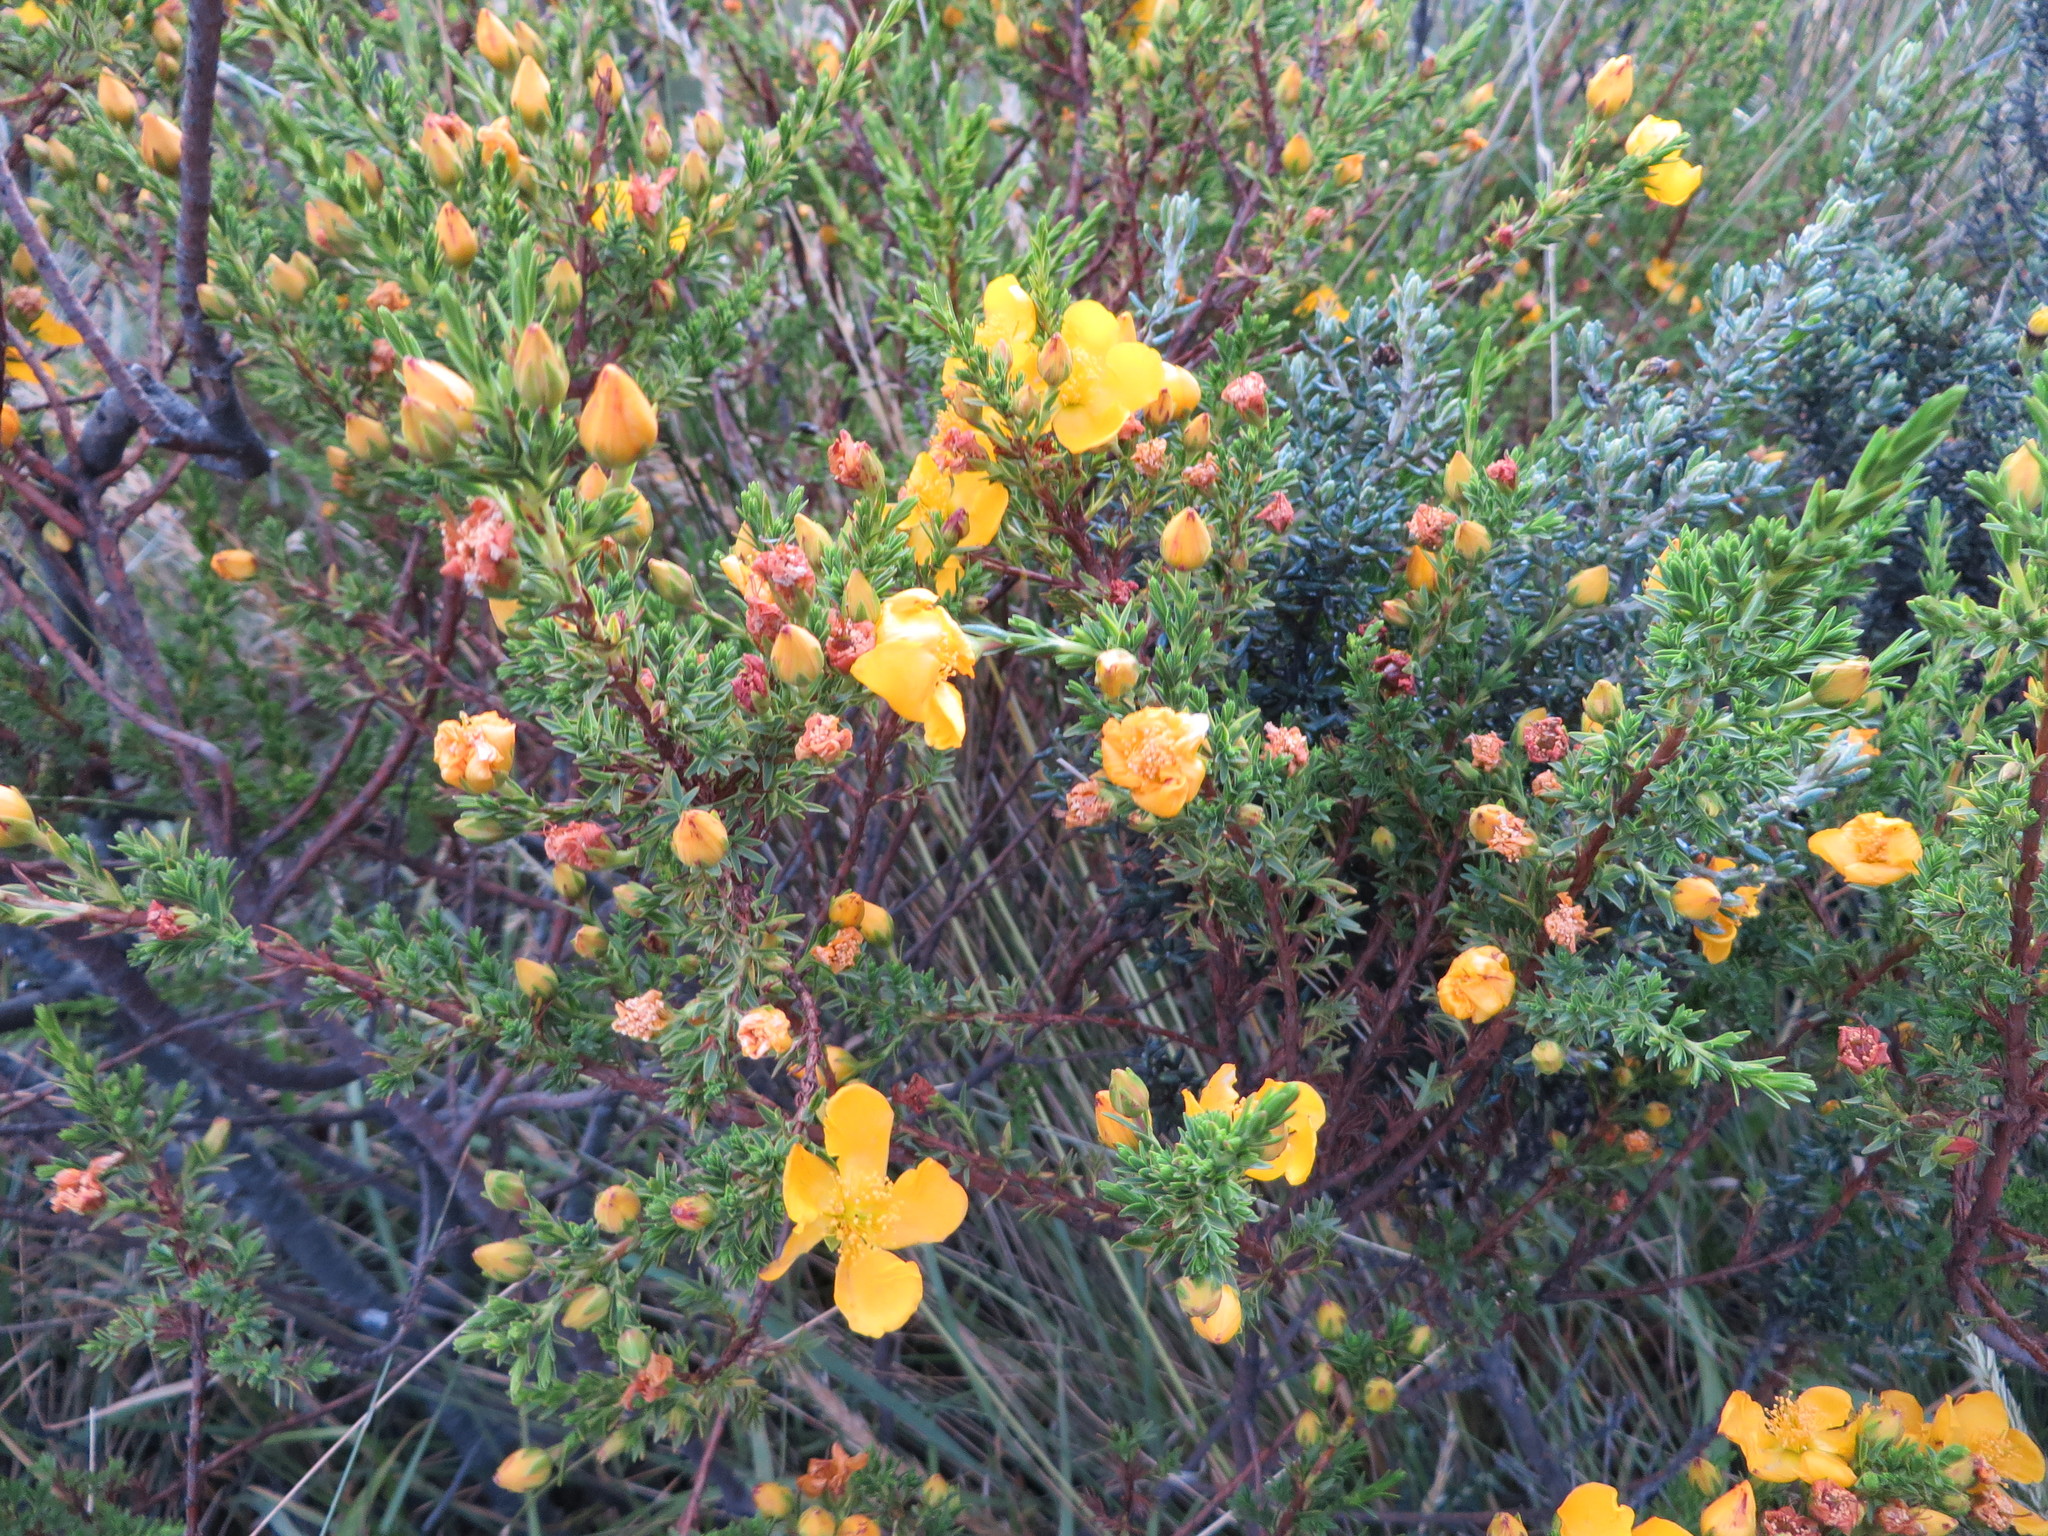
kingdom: Plantae
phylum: Tracheophyta
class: Magnoliopsida
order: Malpighiales
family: Hypericaceae
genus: Hypericum
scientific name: Hypericum laricifolium
